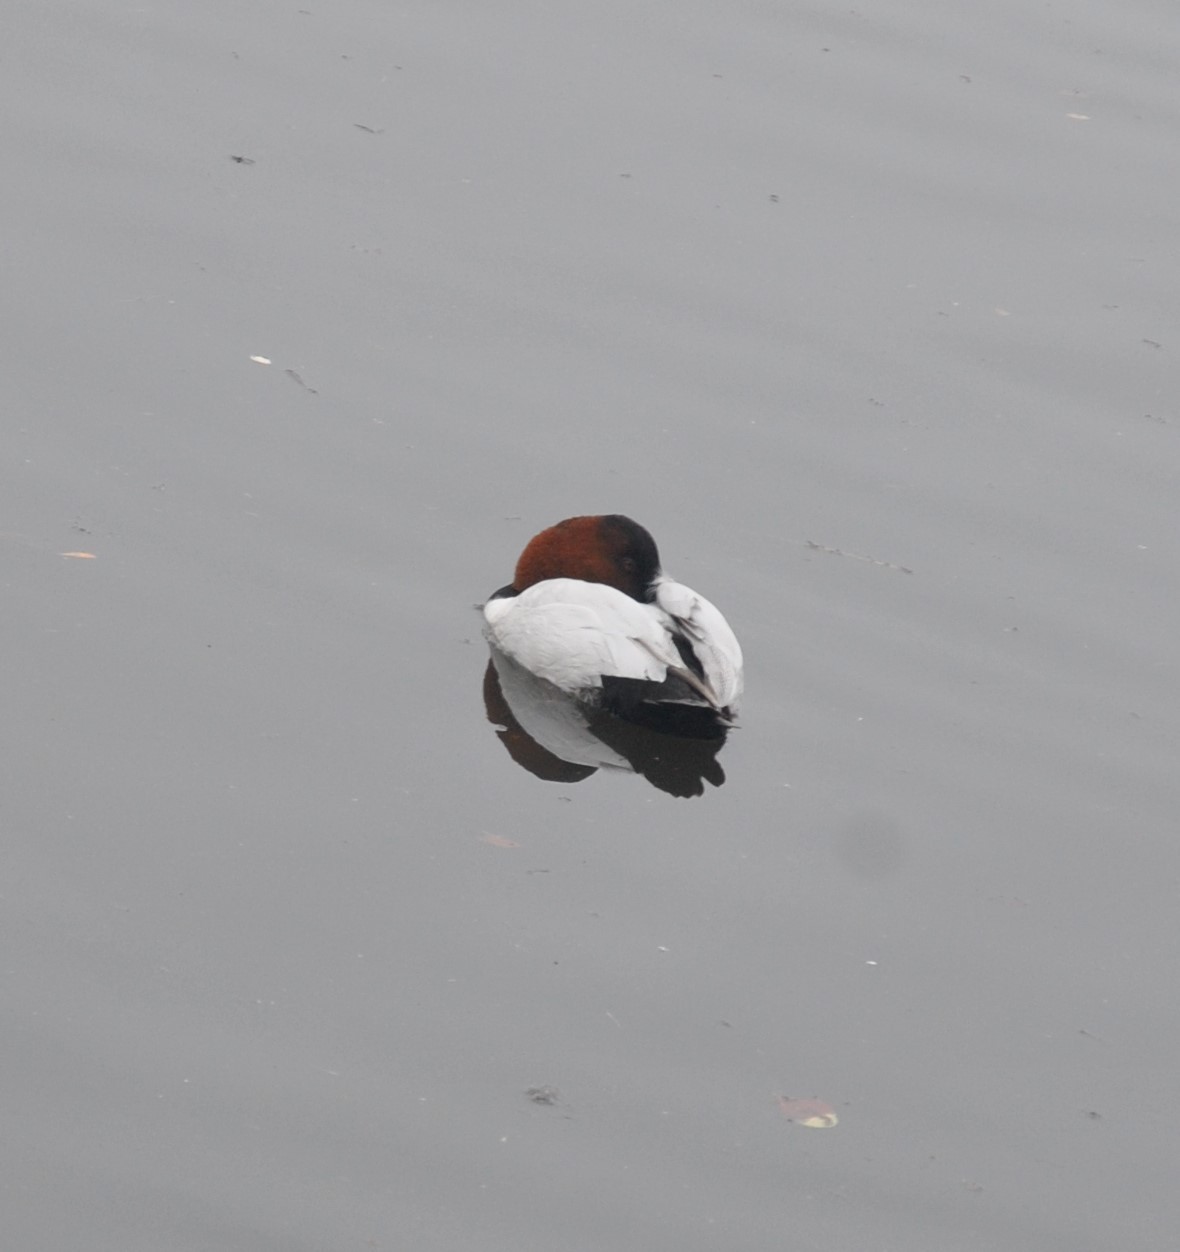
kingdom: Animalia
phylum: Chordata
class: Aves
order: Anseriformes
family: Anatidae
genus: Aythya
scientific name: Aythya valisineria
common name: Canvasback
